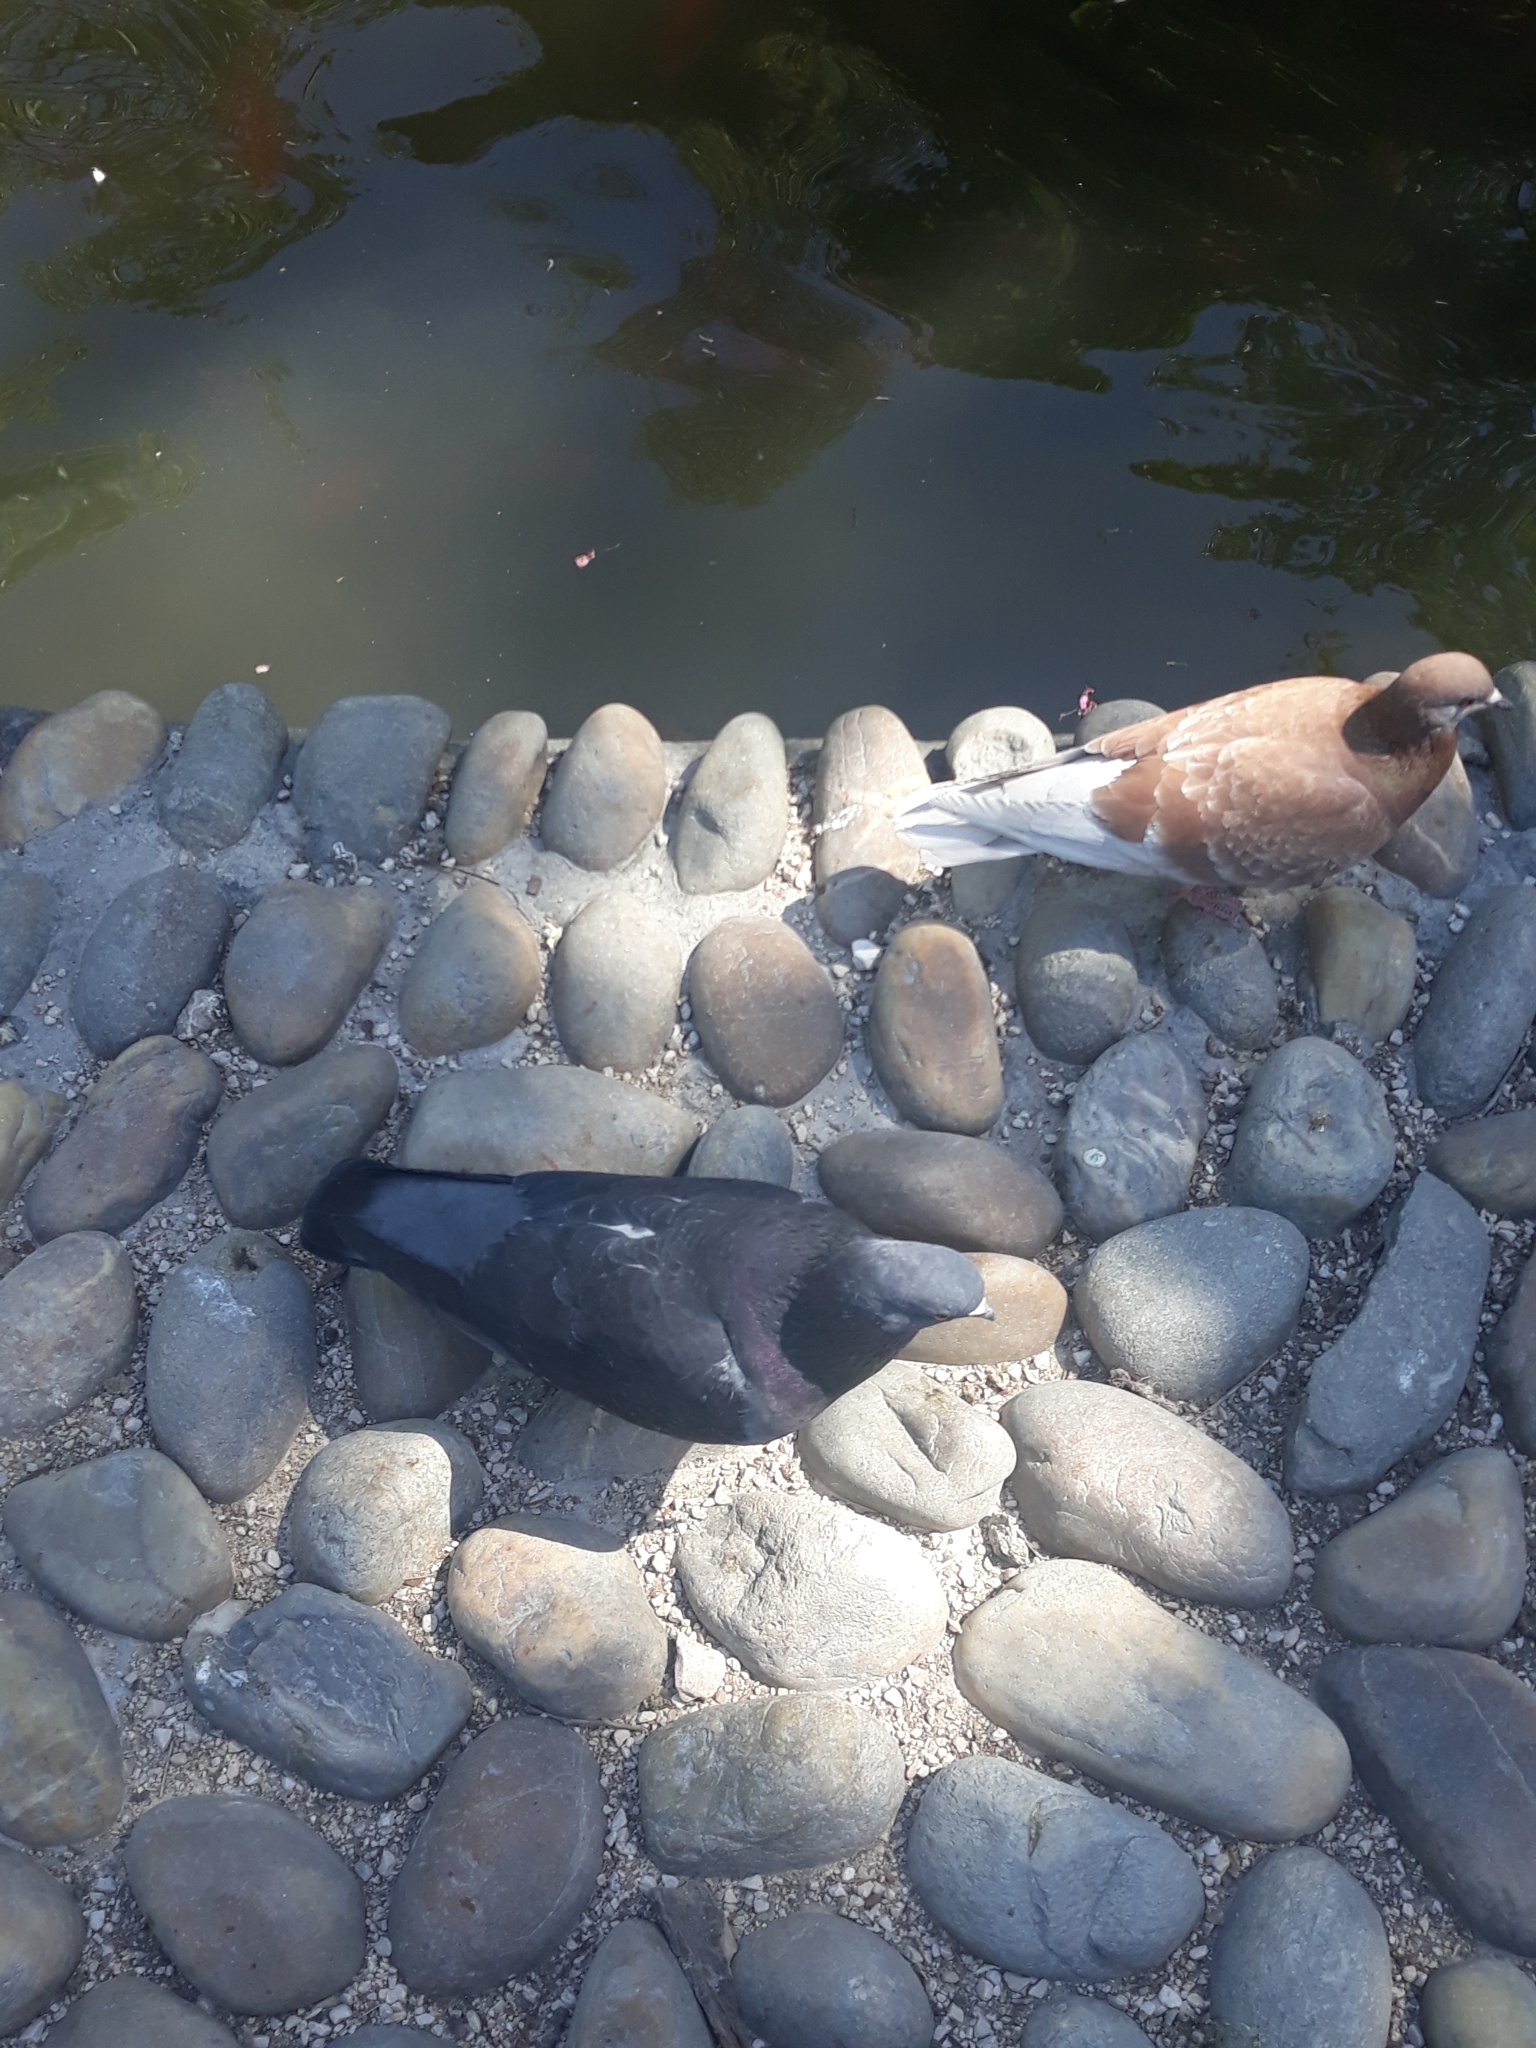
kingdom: Animalia
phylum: Chordata
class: Aves
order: Columbiformes
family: Columbidae
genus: Columba
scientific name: Columba livia
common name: Rock pigeon
